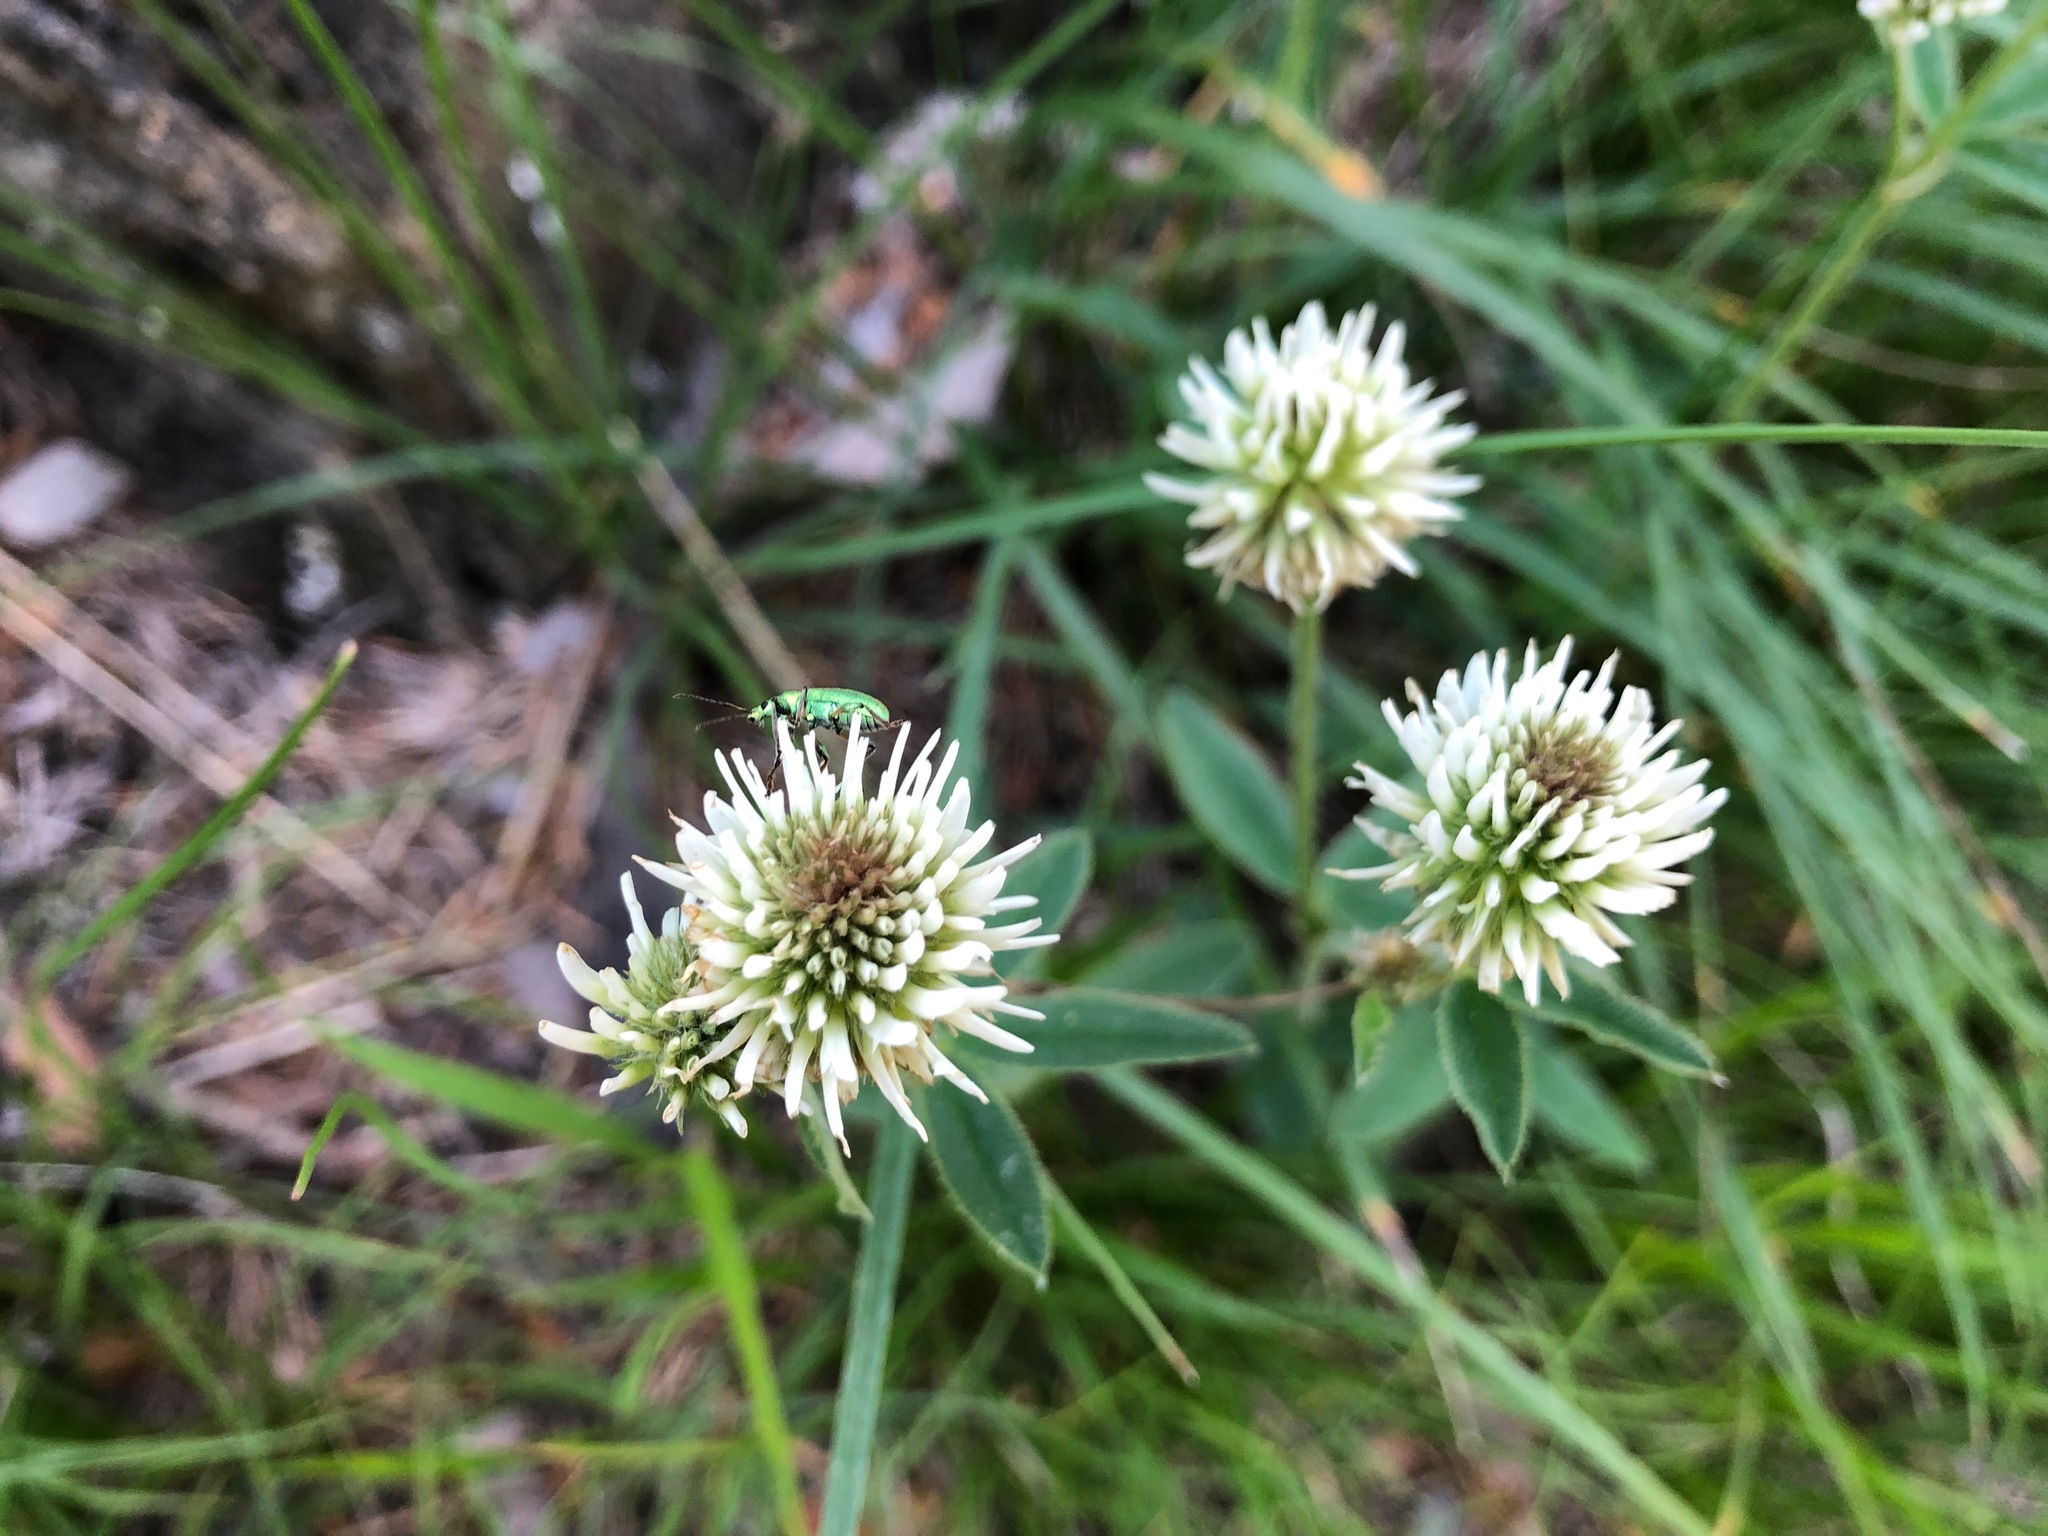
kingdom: Plantae
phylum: Tracheophyta
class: Magnoliopsida
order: Fabales
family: Fabaceae
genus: Trifolium
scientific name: Trifolium montanum
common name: Mountain clover
